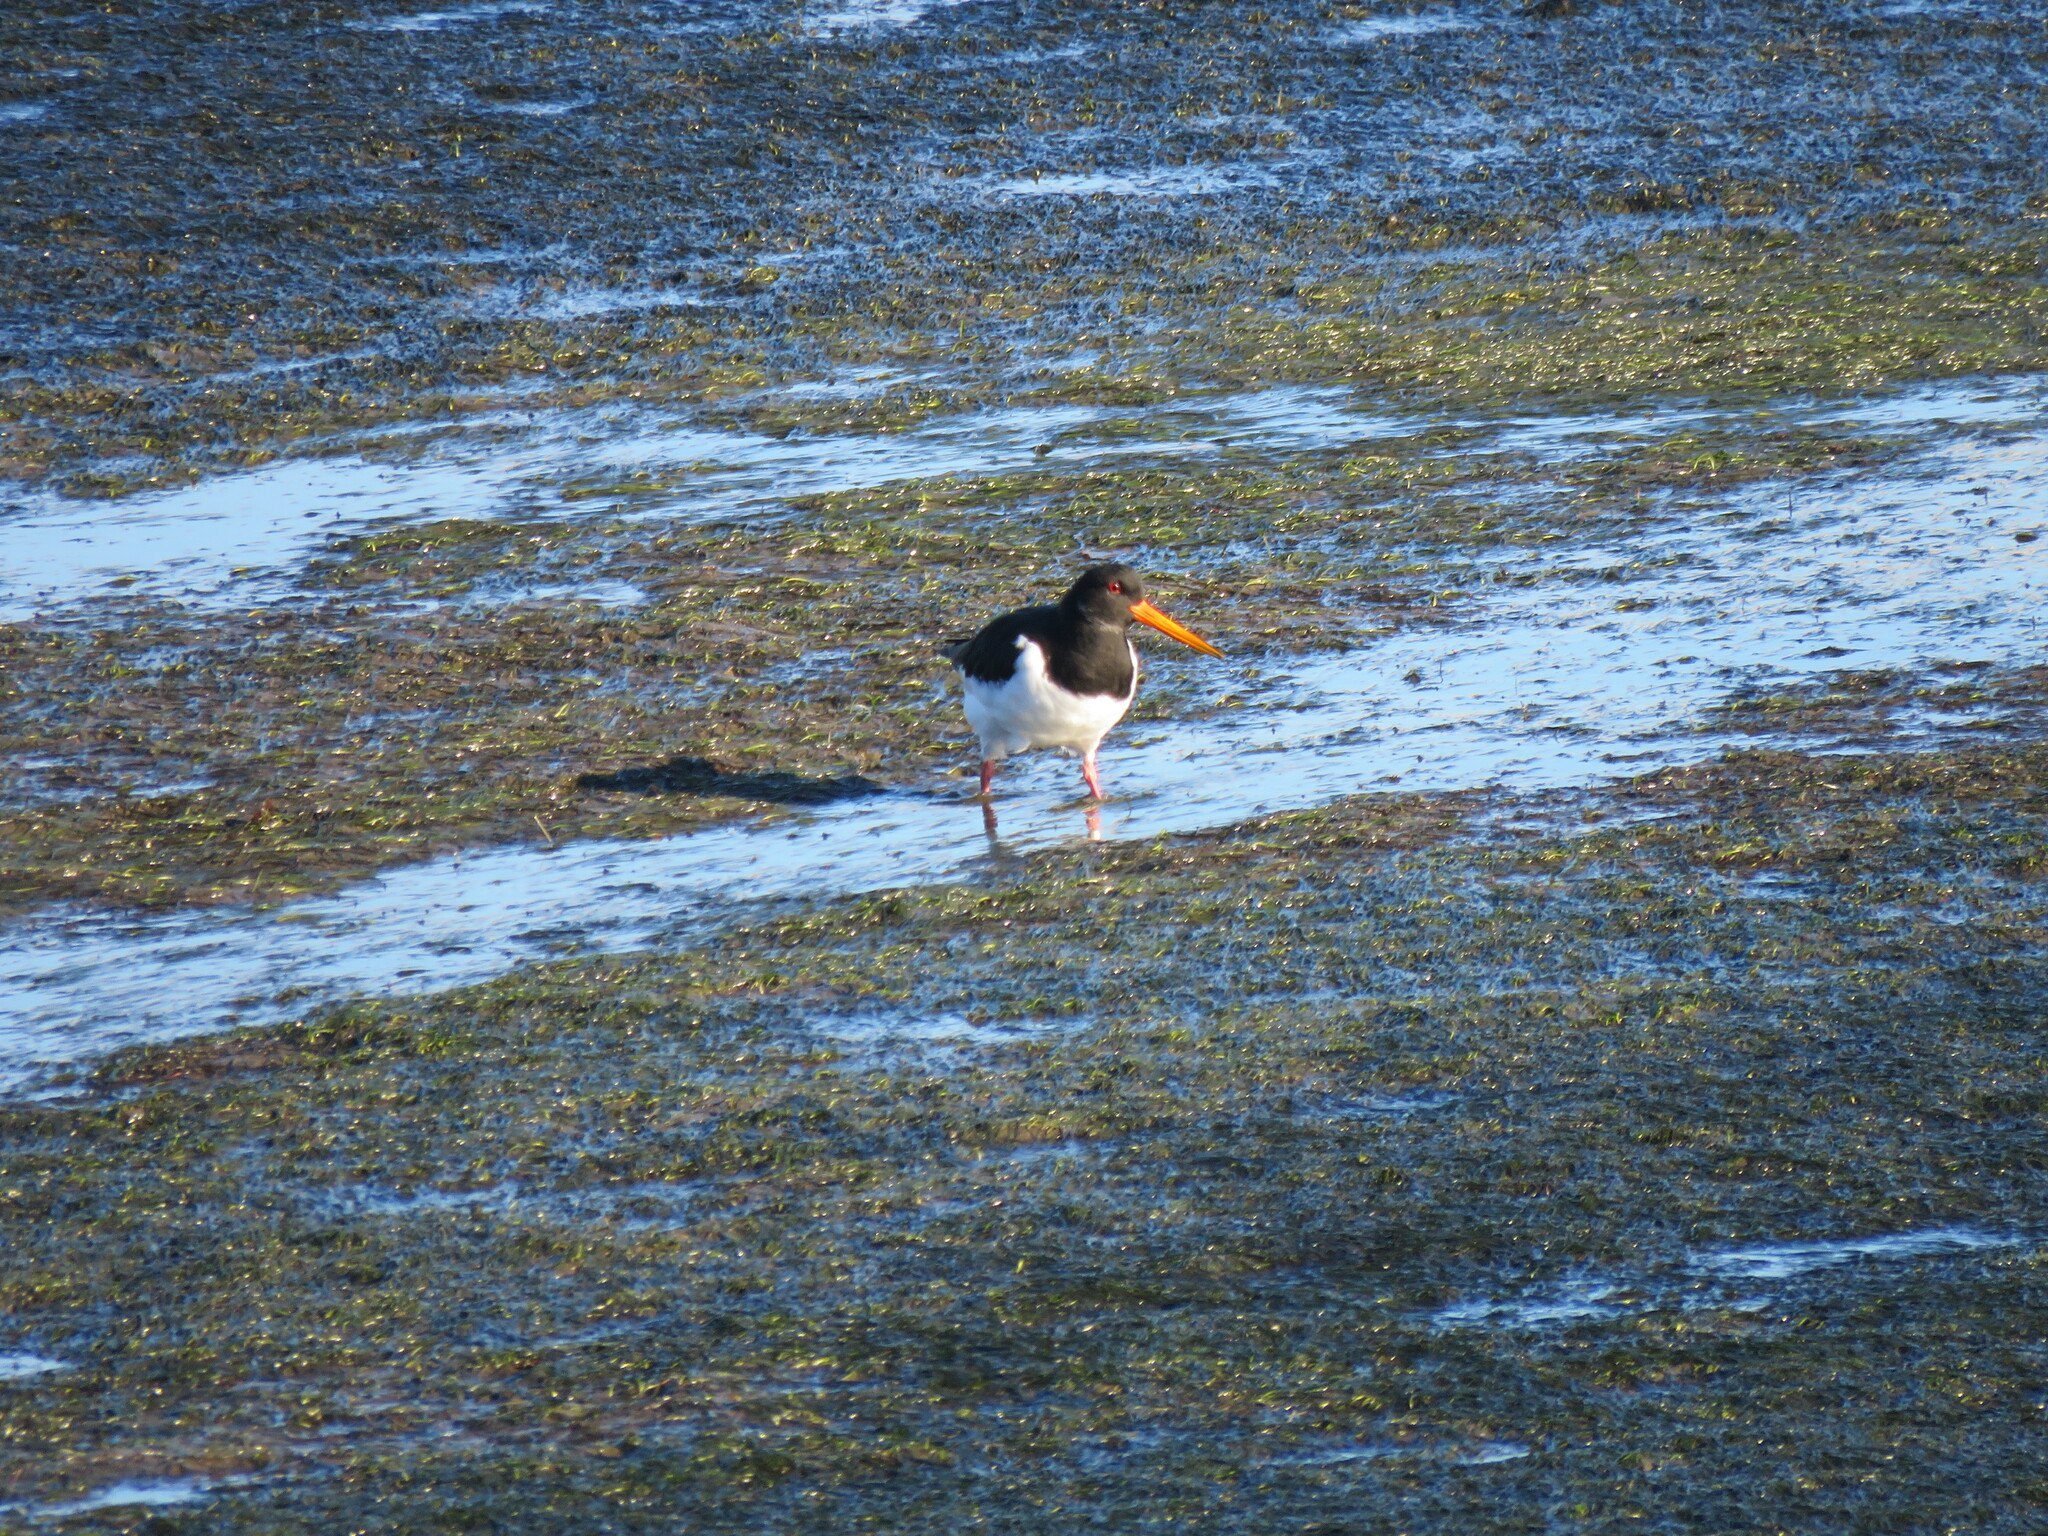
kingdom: Animalia
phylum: Chordata
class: Aves
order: Charadriiformes
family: Haematopodidae
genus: Haematopus
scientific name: Haematopus ostralegus
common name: Eurasian oystercatcher
